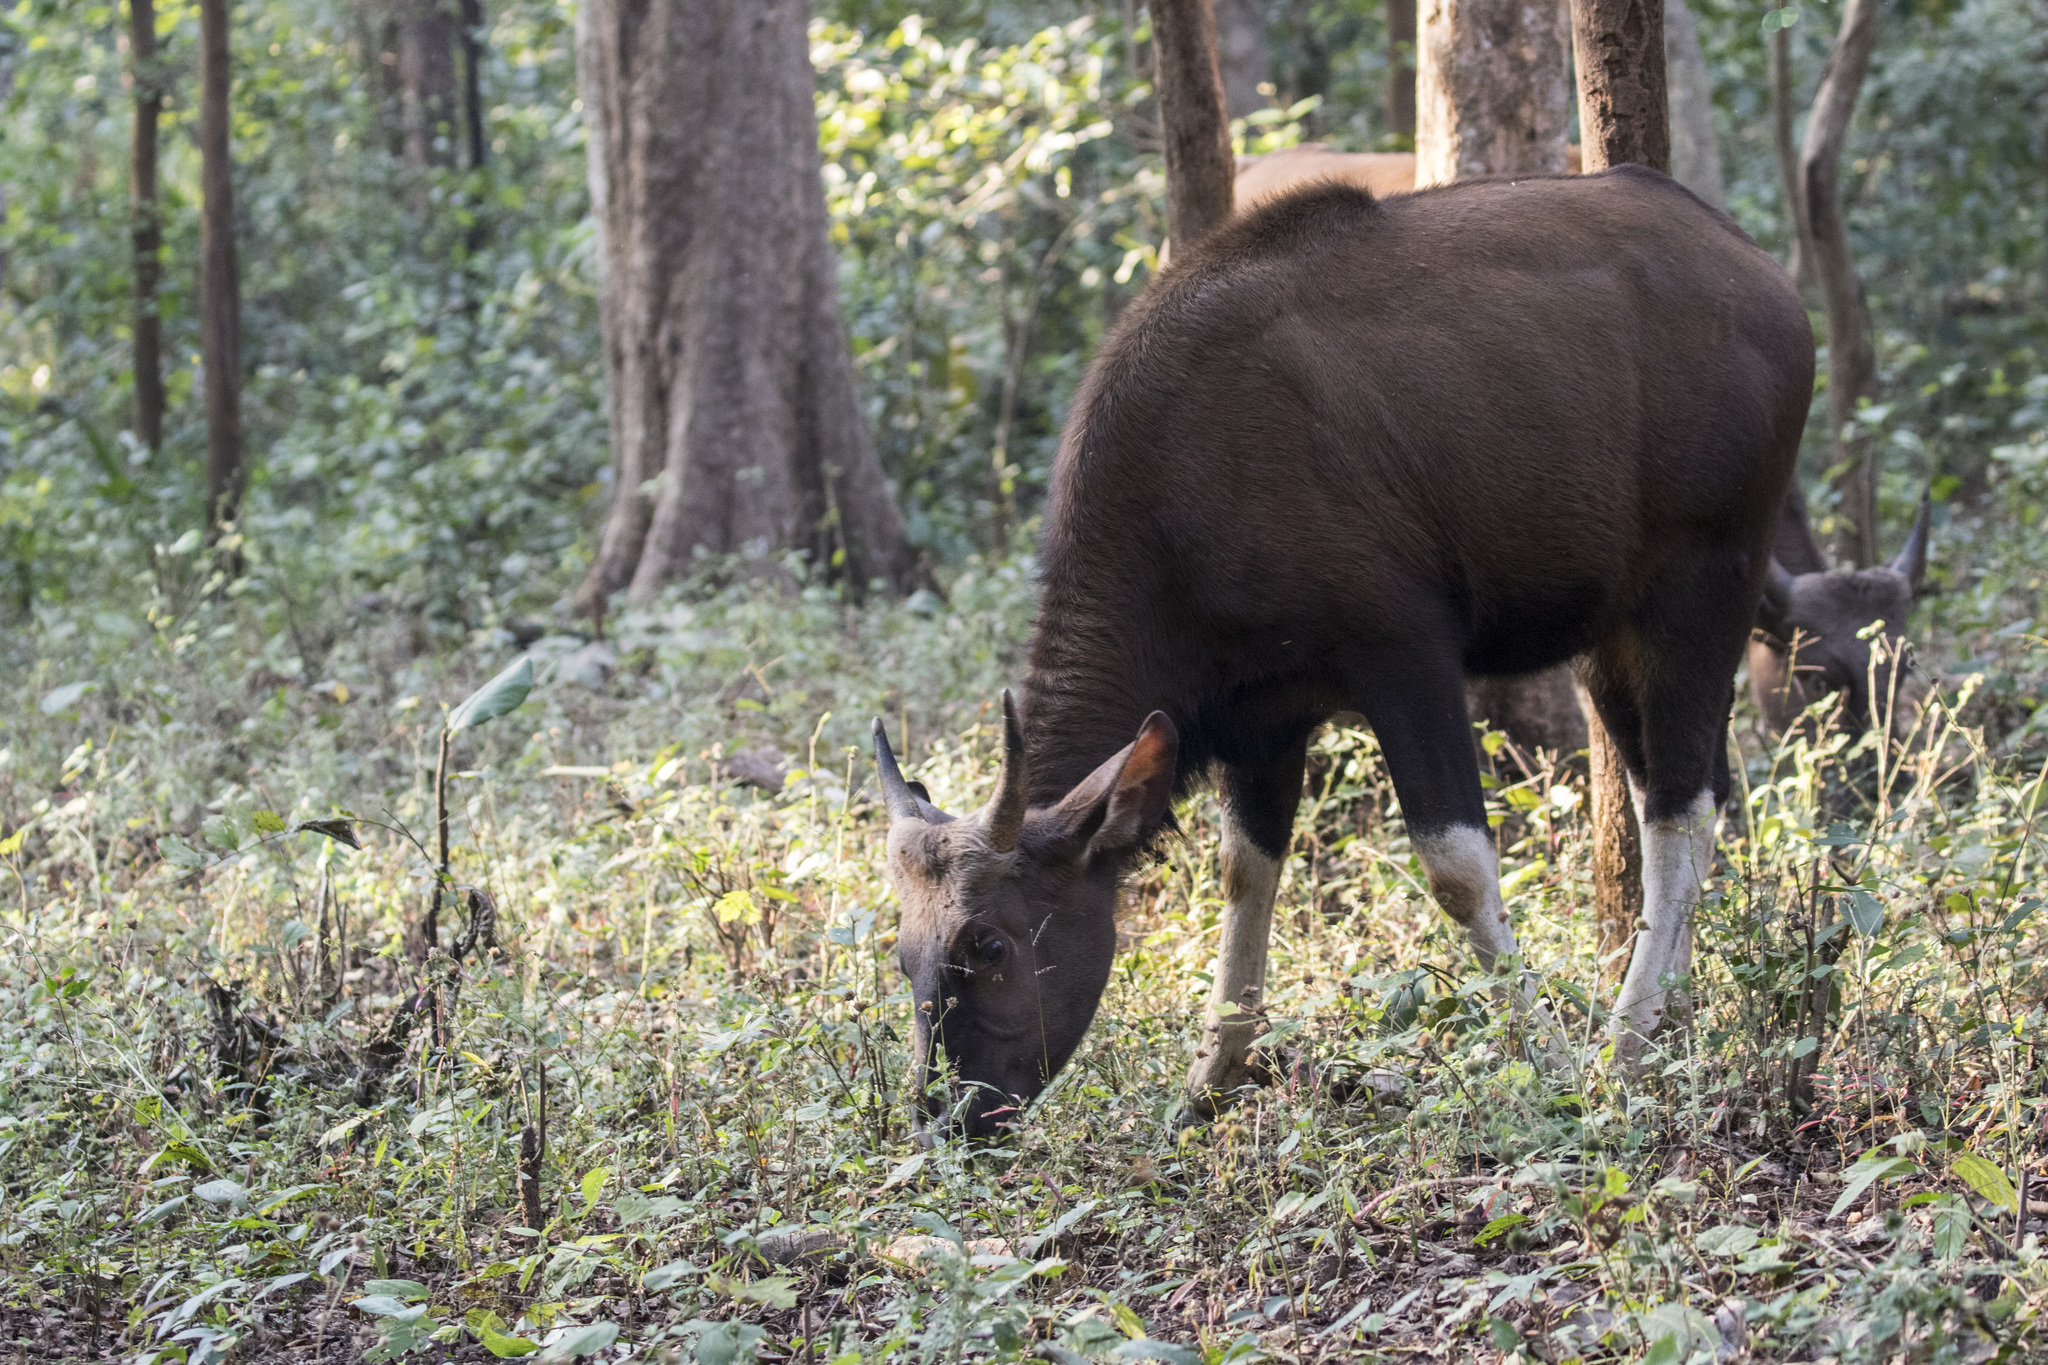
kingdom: Animalia
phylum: Chordata
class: Mammalia
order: Artiodactyla
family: Bovidae
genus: Bos
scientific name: Bos frontalis
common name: Gaur
